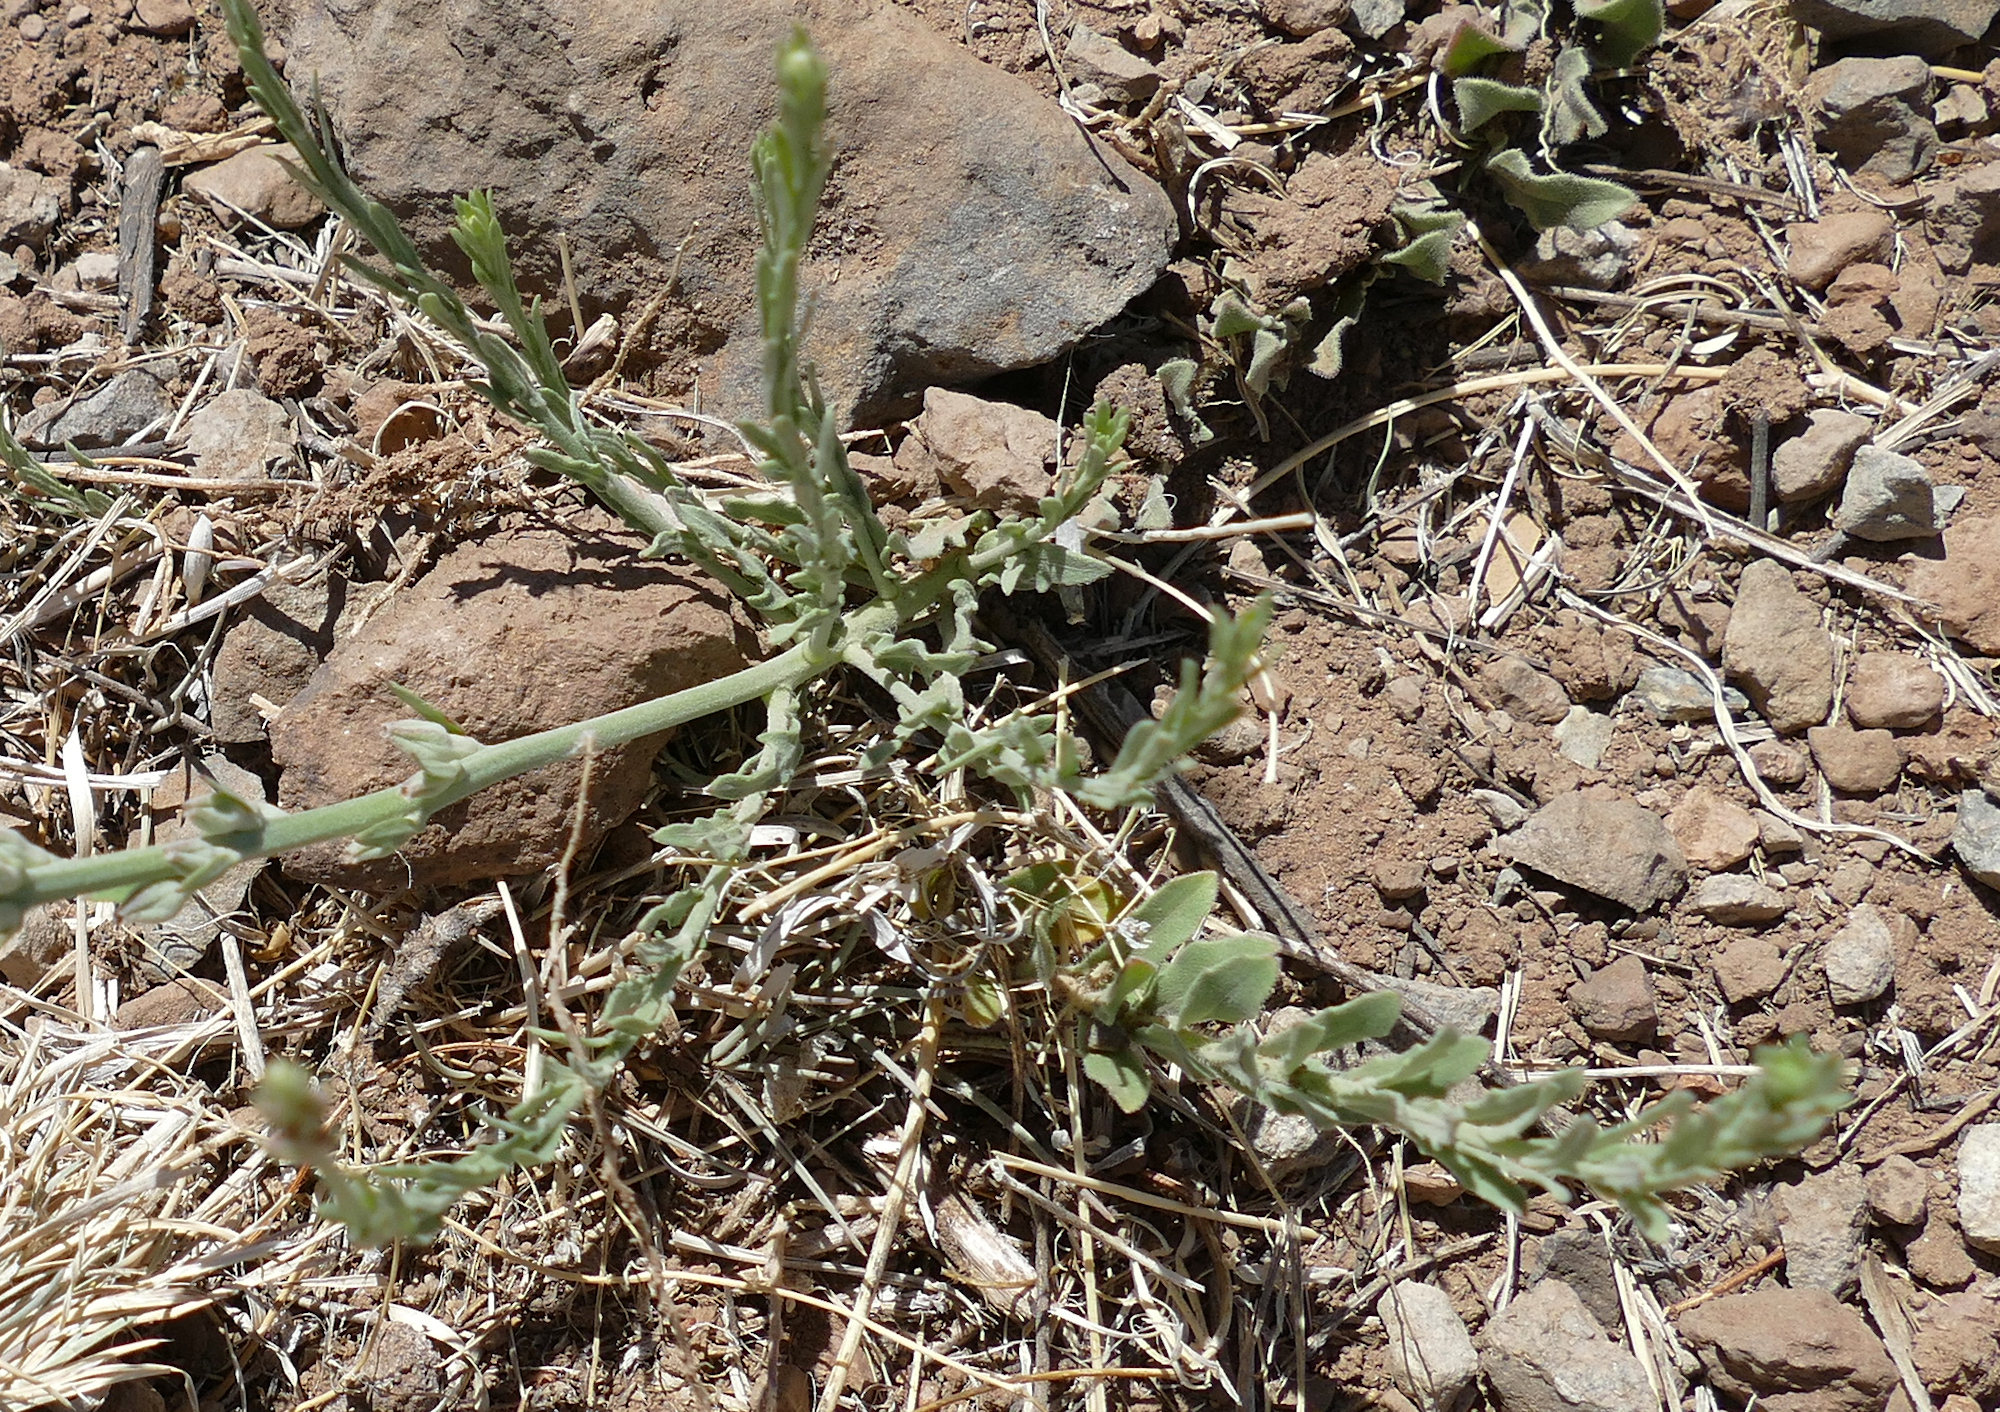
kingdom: Plantae
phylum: Tracheophyta
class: Magnoliopsida
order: Myrtales
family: Onagraceae
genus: Oenothera
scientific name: Oenothera suffrutescens
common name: Scarlet beeblossom
